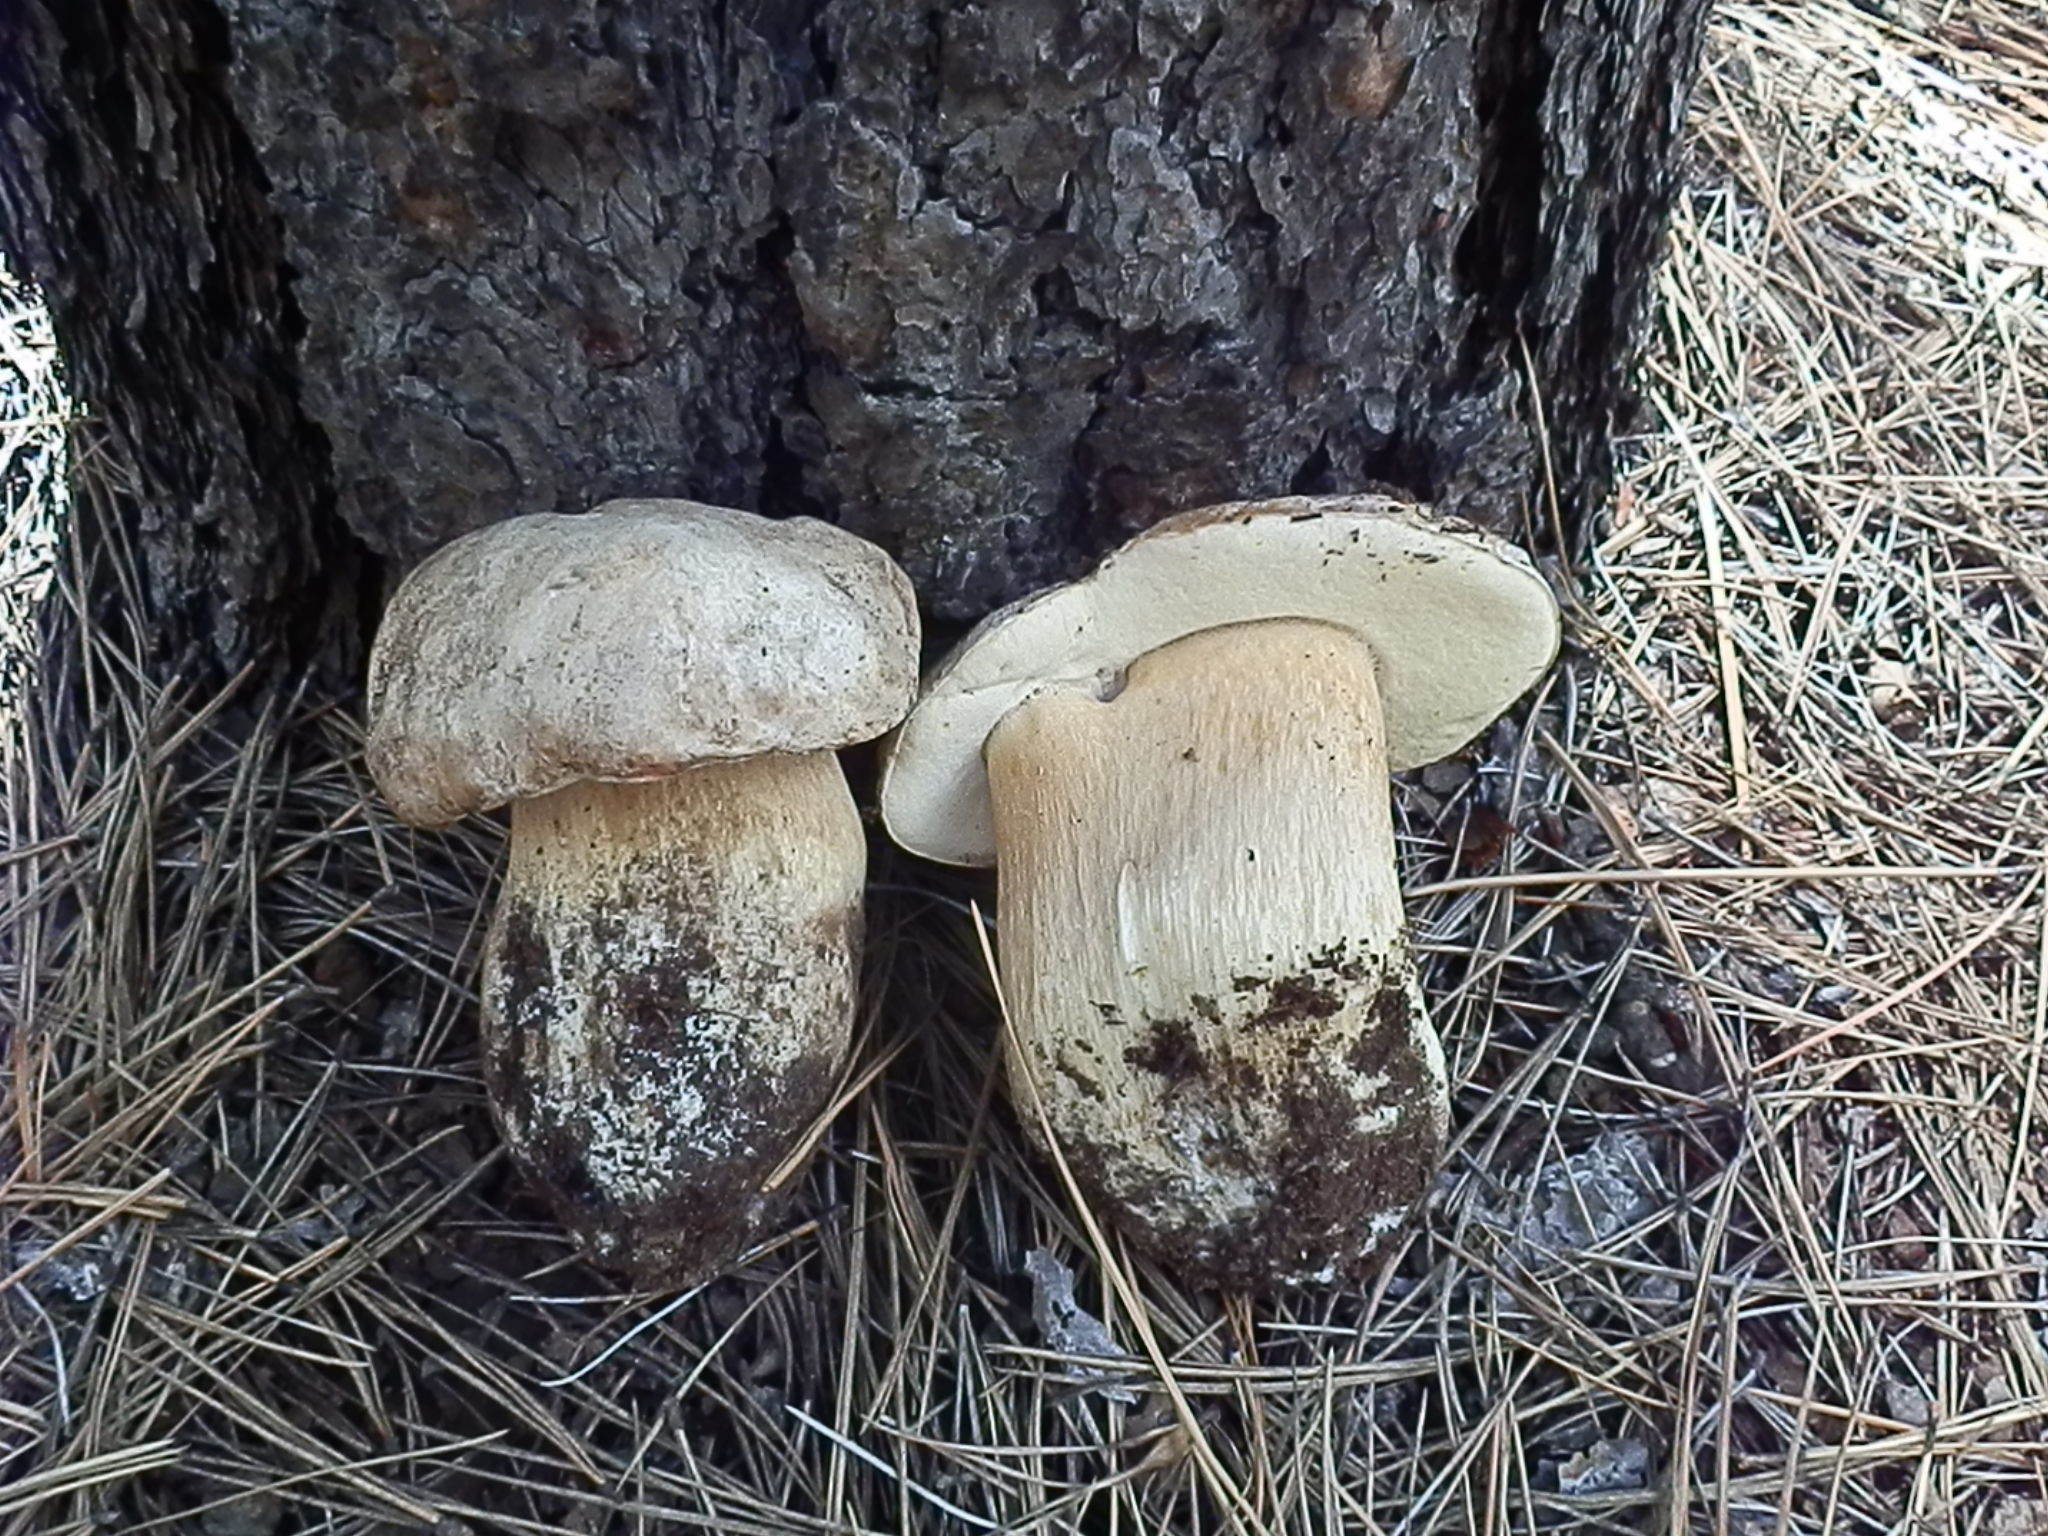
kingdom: Fungi
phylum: Basidiomycota
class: Agaricomycetes
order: Boletales
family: Boletaceae
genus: Boletus
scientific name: Boletus barrowsii
